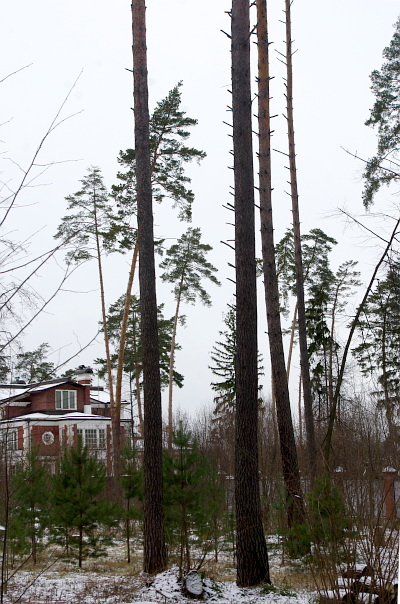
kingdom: Plantae
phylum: Tracheophyta
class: Pinopsida
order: Pinales
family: Pinaceae
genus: Pinus
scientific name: Pinus sylvestris
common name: Scots pine
